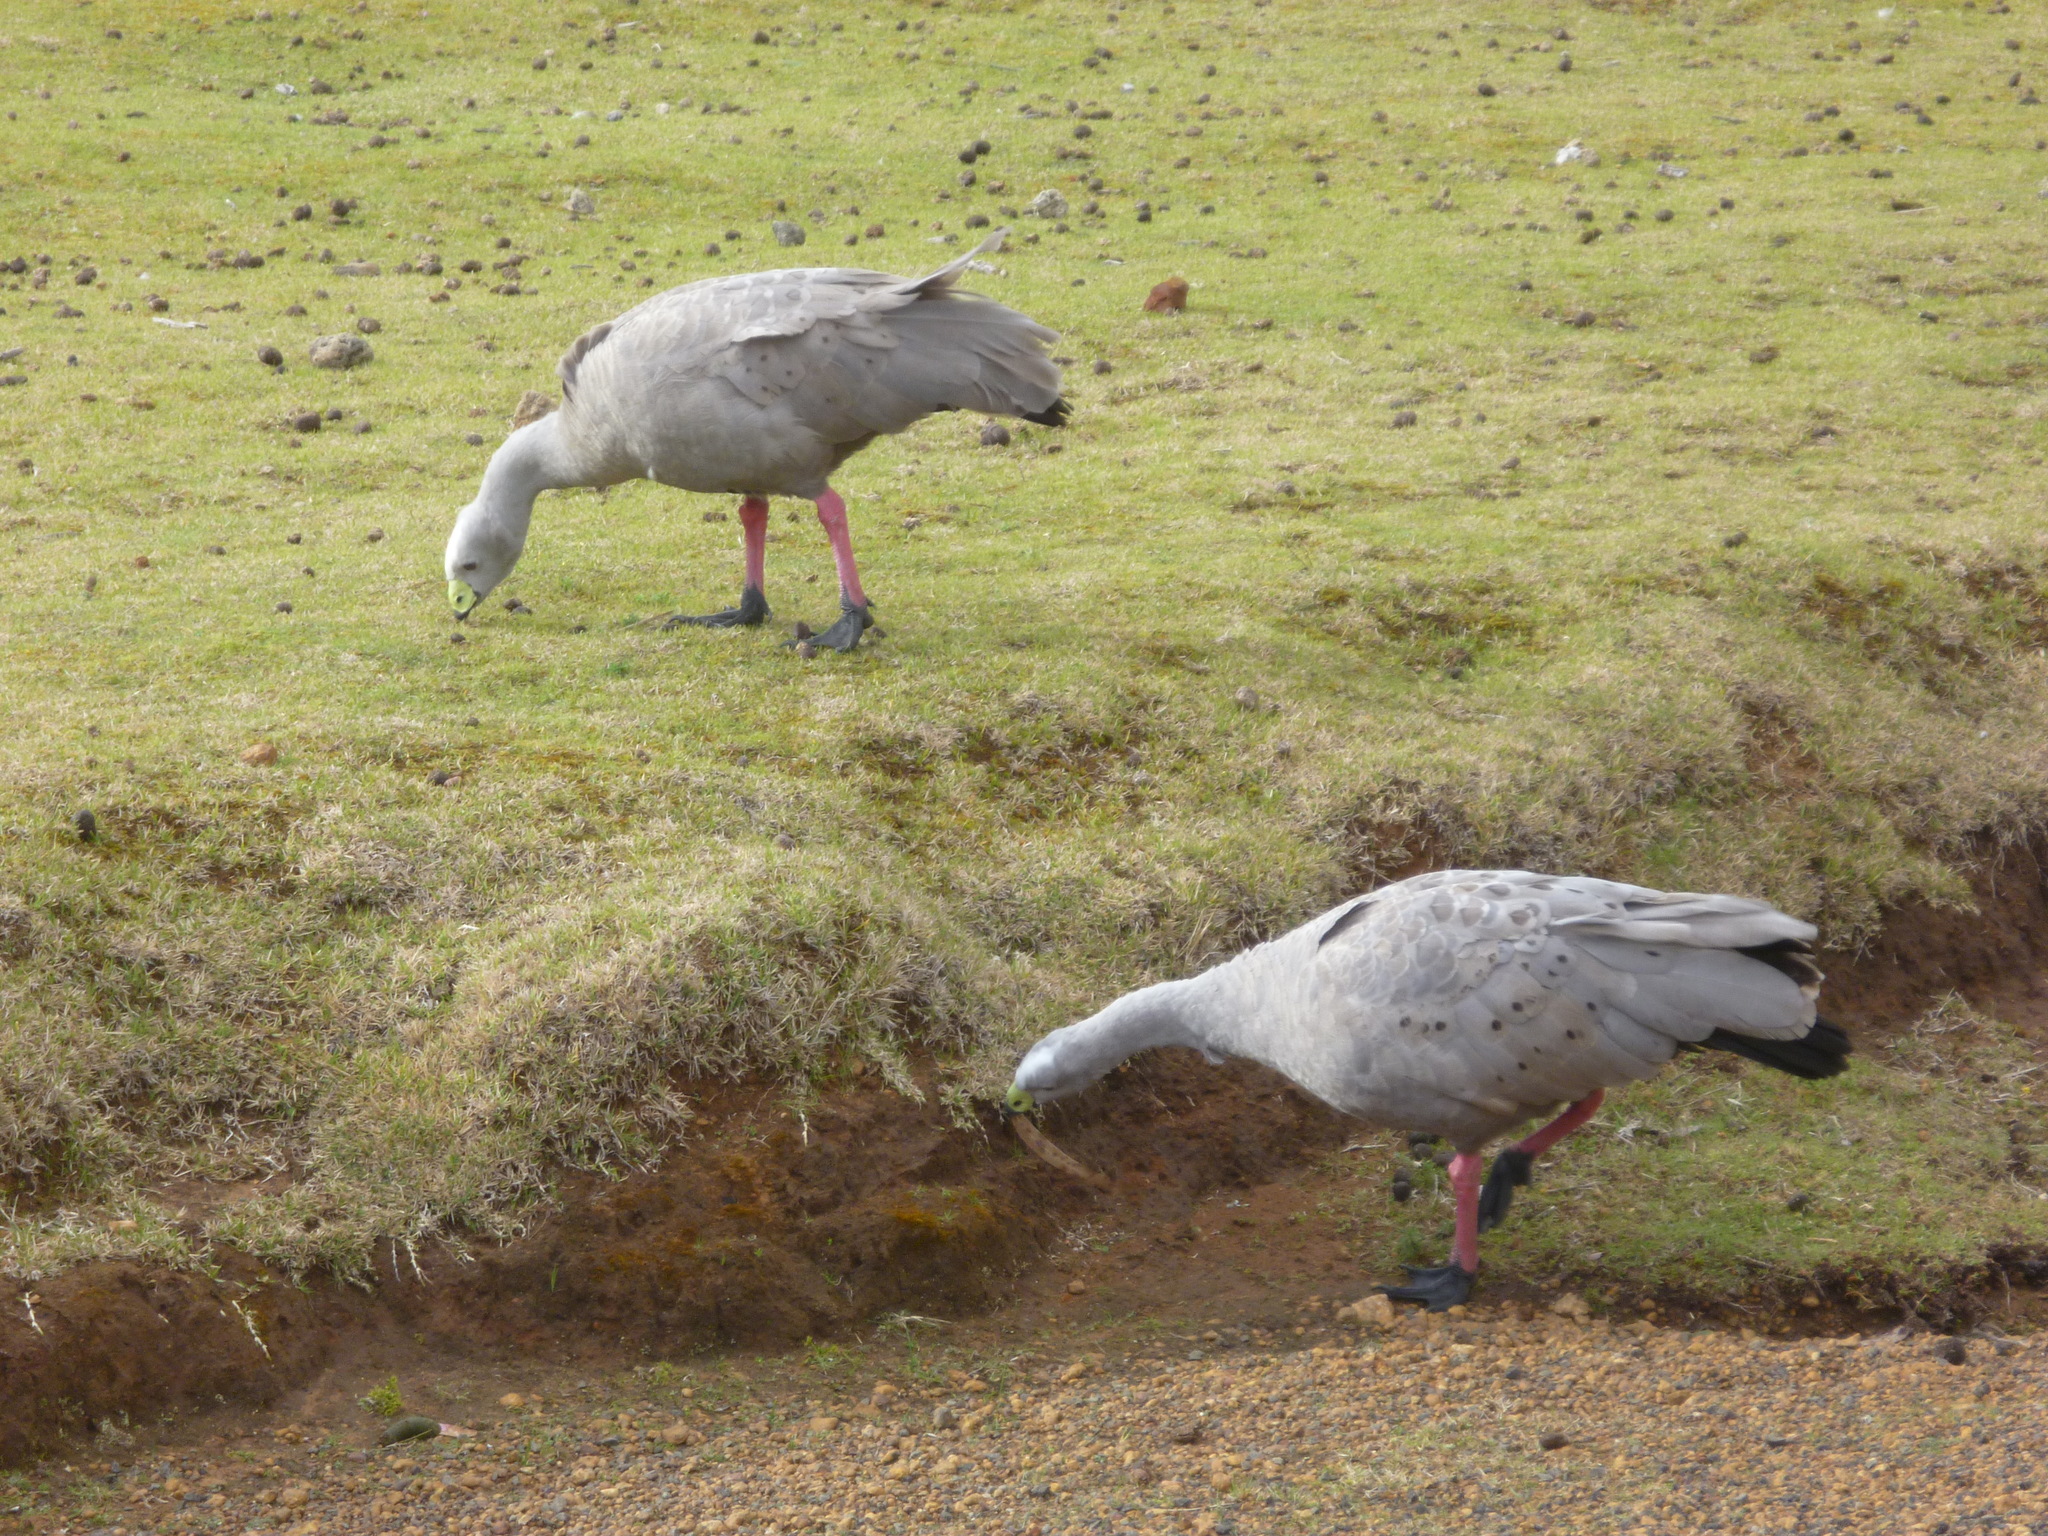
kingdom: Animalia
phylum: Chordata
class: Aves
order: Anseriformes
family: Anatidae
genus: Cereopsis
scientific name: Cereopsis novaehollandiae
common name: Cape barren goose
